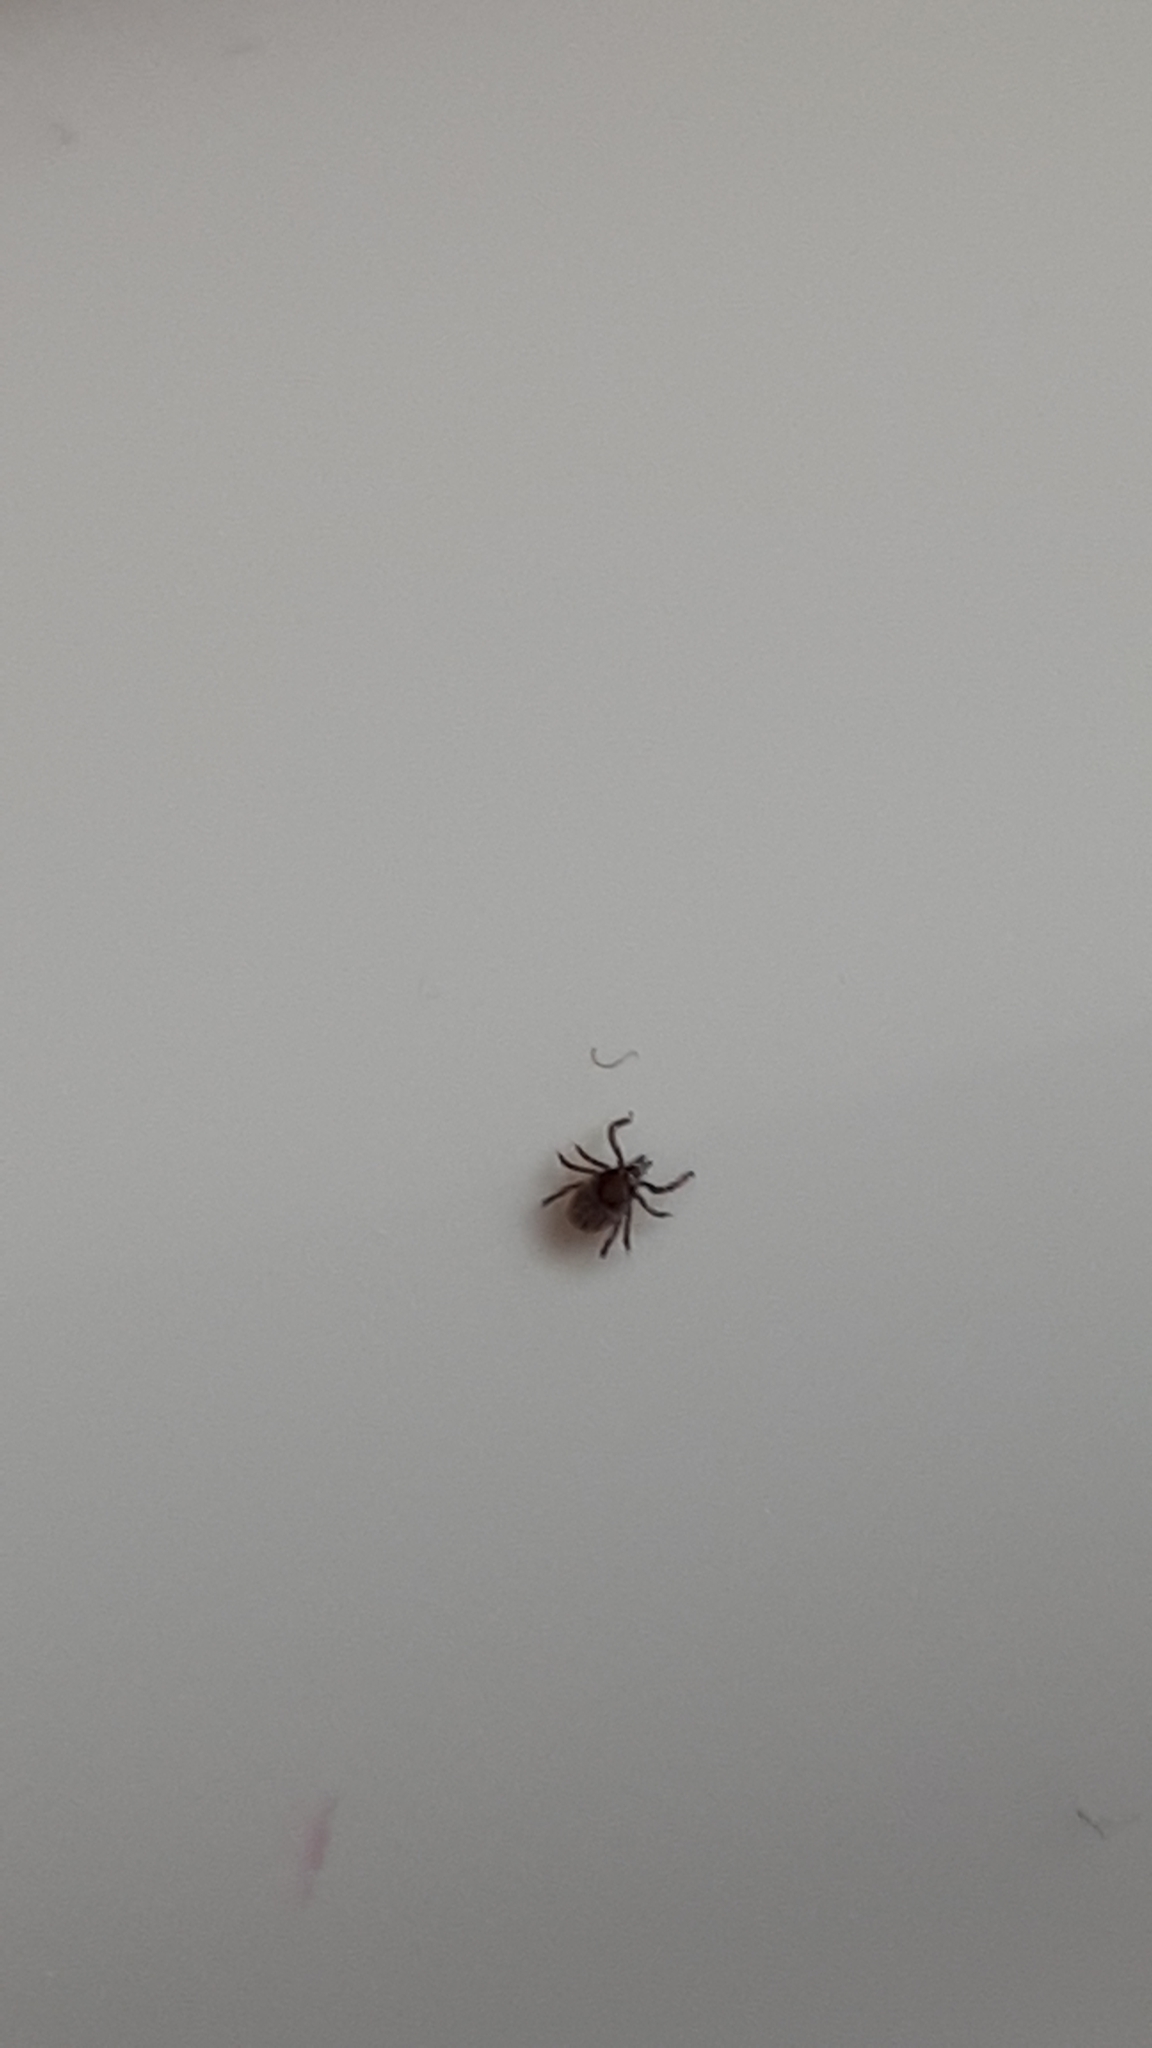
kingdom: Animalia
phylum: Arthropoda
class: Arachnida
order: Ixodida
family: Ixodidae
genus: Ixodes
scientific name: Ixodes ricinus
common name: Castor bean tick
